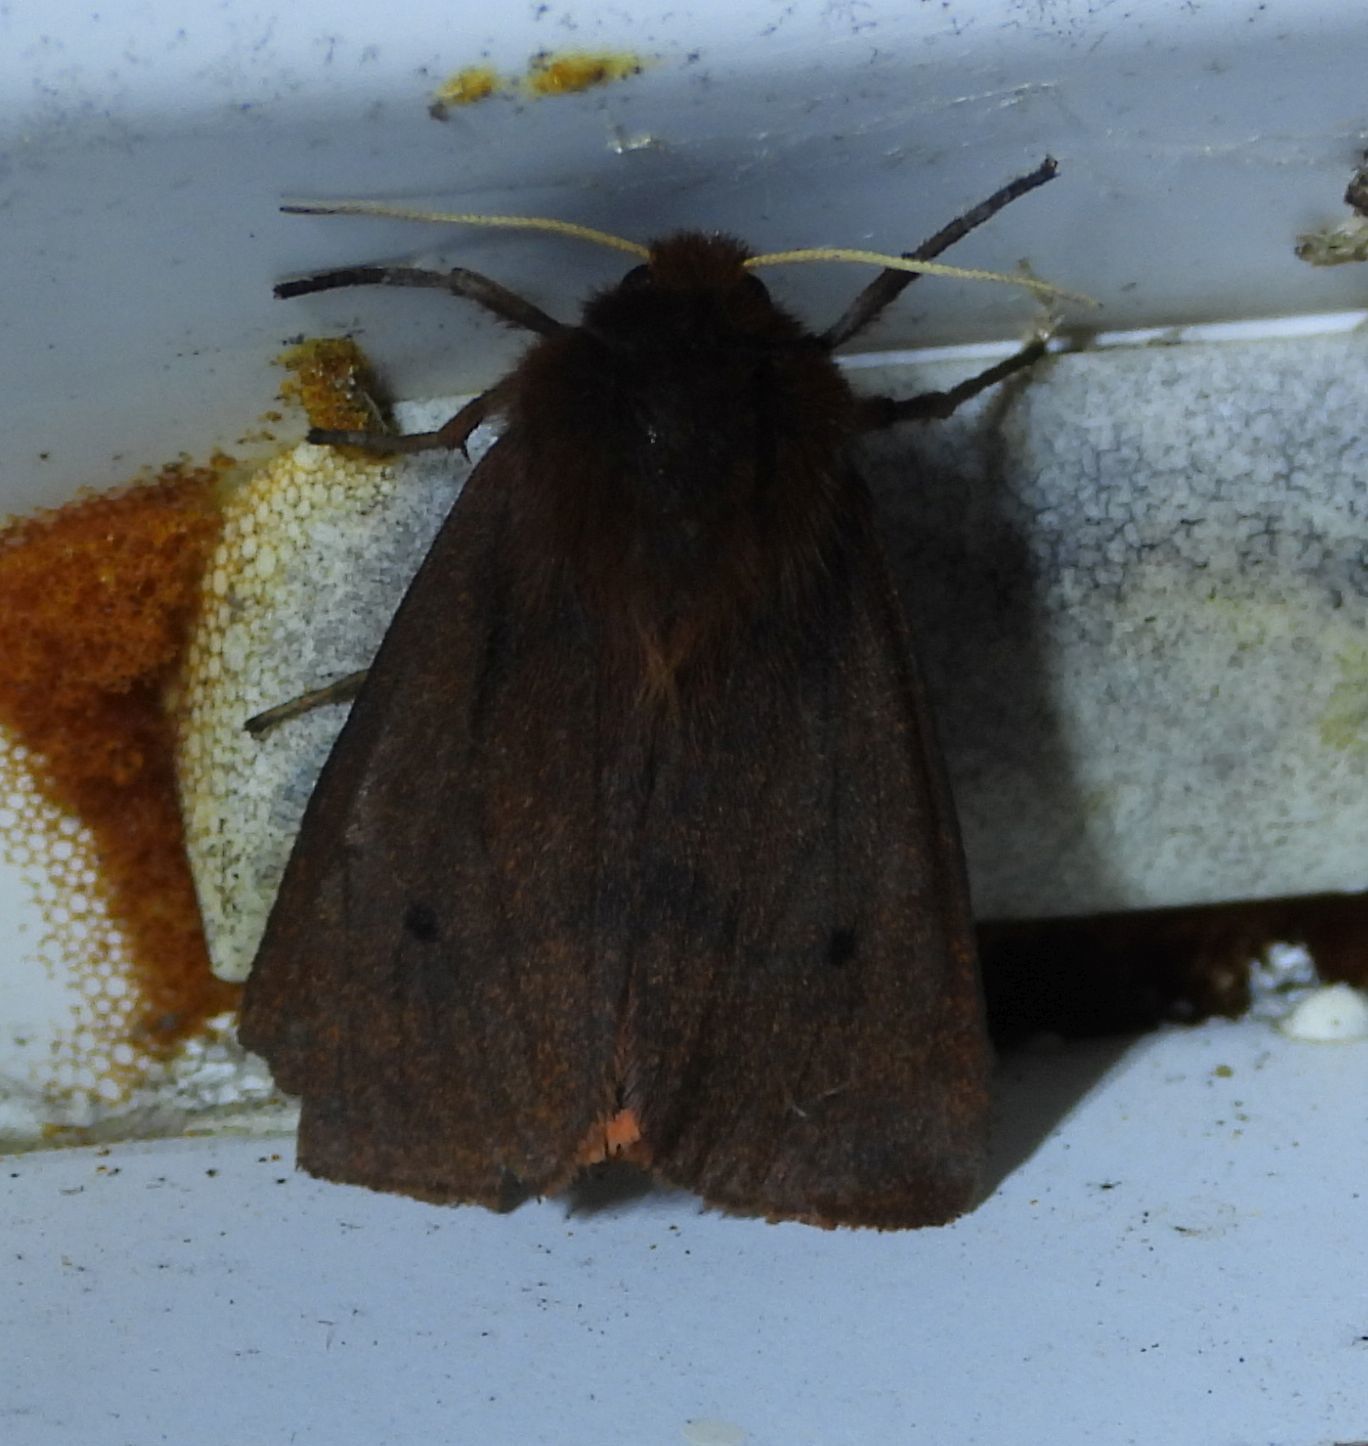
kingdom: Animalia
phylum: Arthropoda
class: Insecta
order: Lepidoptera
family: Erebidae
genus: Phragmatobia
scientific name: Phragmatobia fuliginosa
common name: Ruby tiger
